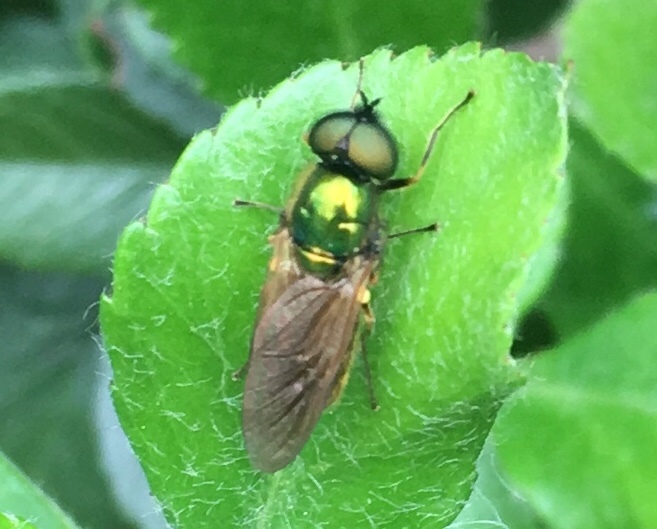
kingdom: Animalia
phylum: Arthropoda
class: Insecta
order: Diptera
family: Stratiomyidae
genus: Chloromyia
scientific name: Chloromyia formosa
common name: Soldier fly
